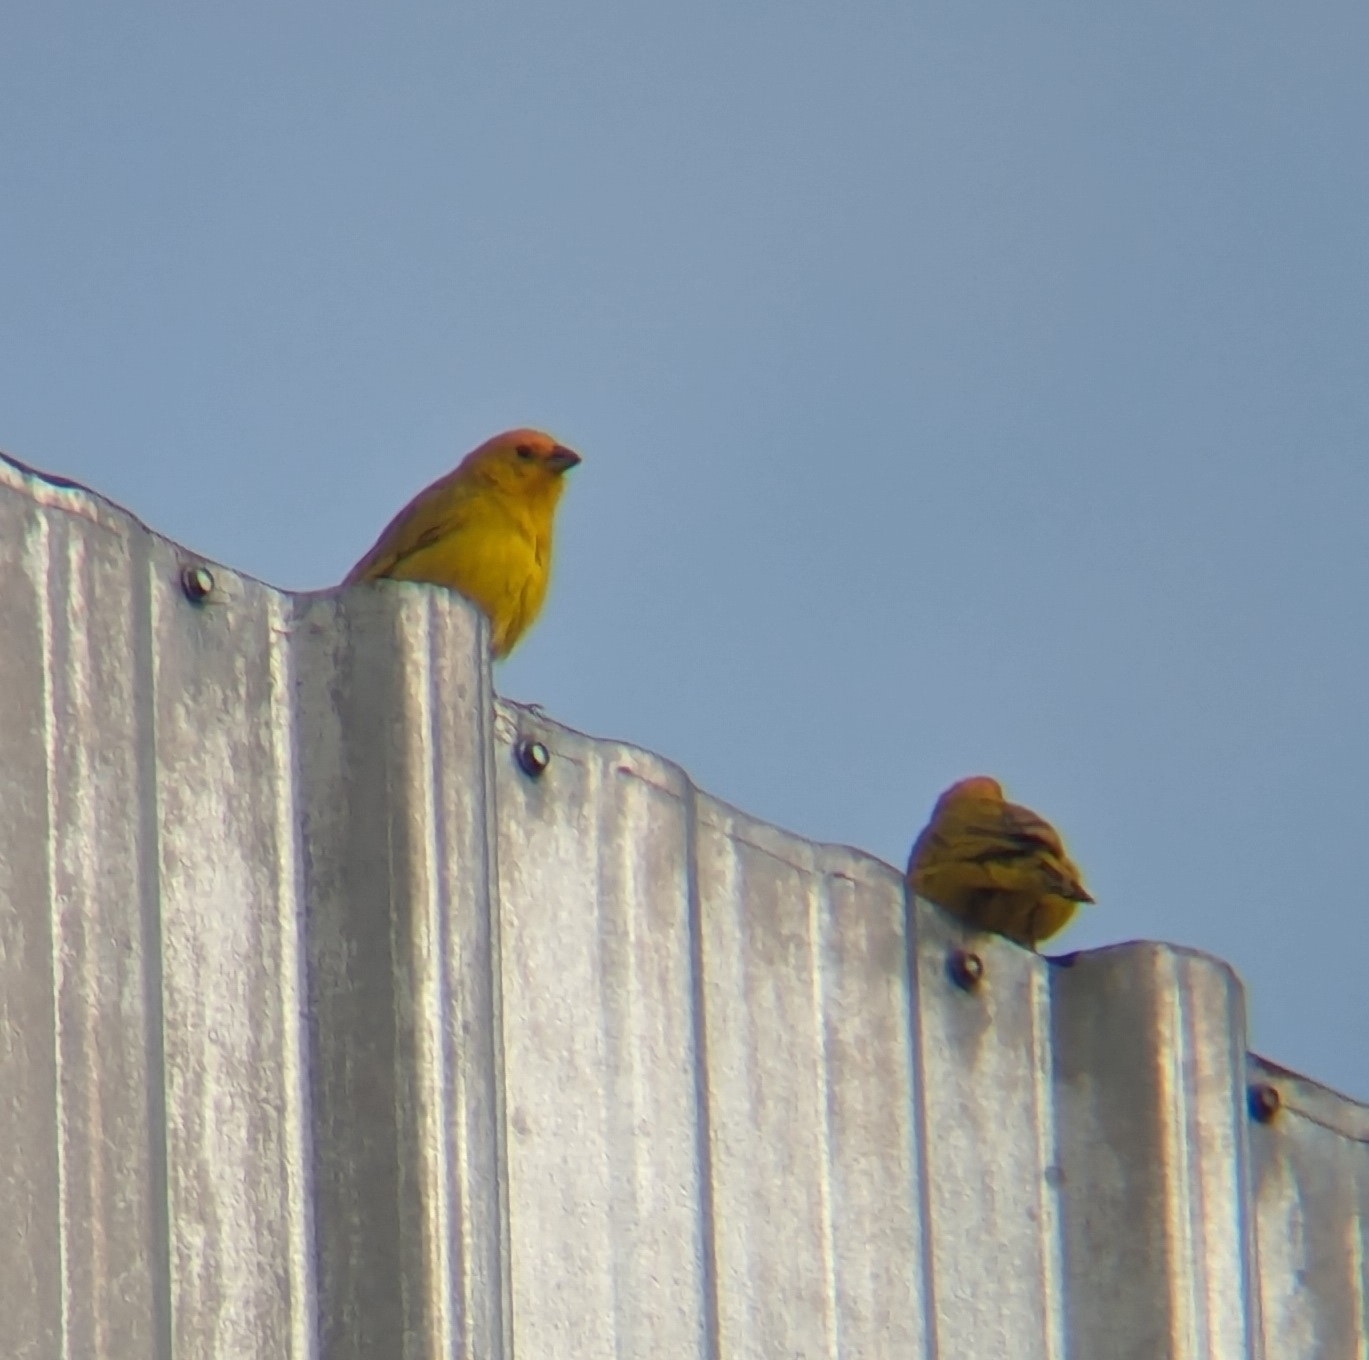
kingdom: Animalia
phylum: Chordata
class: Aves
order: Passeriformes
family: Thraupidae
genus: Sicalis
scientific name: Sicalis flaveola
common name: Saffron finch
